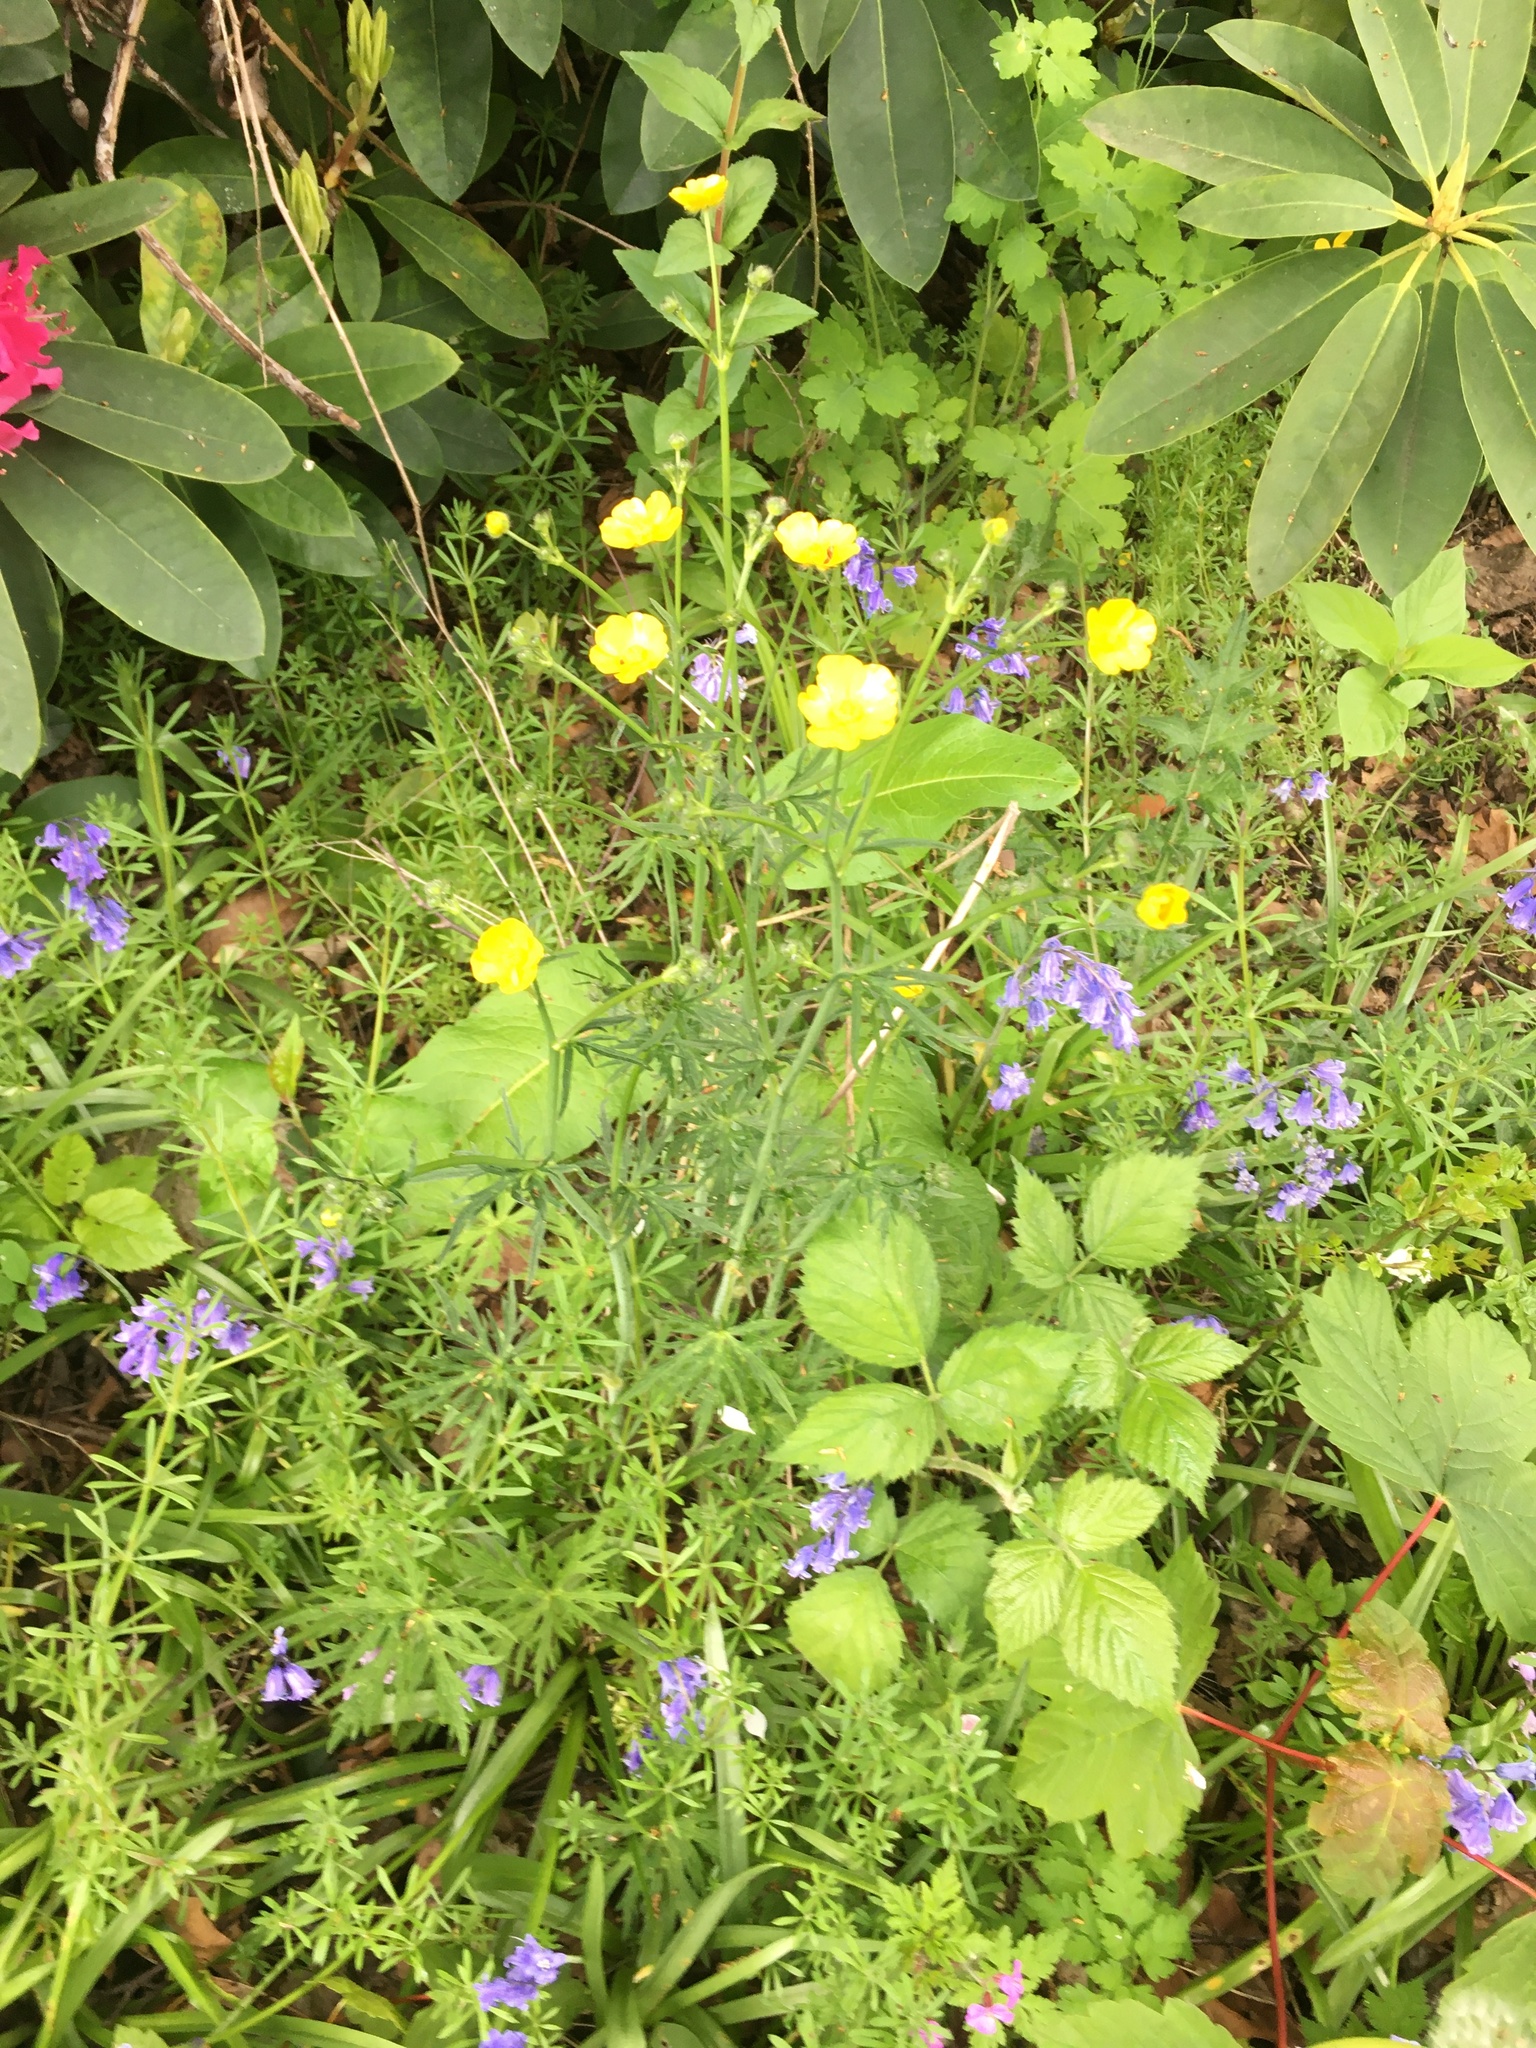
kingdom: Plantae
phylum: Tracheophyta
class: Magnoliopsida
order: Ranunculales
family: Ranunculaceae
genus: Ranunculus
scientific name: Ranunculus acris
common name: Meadow buttercup
